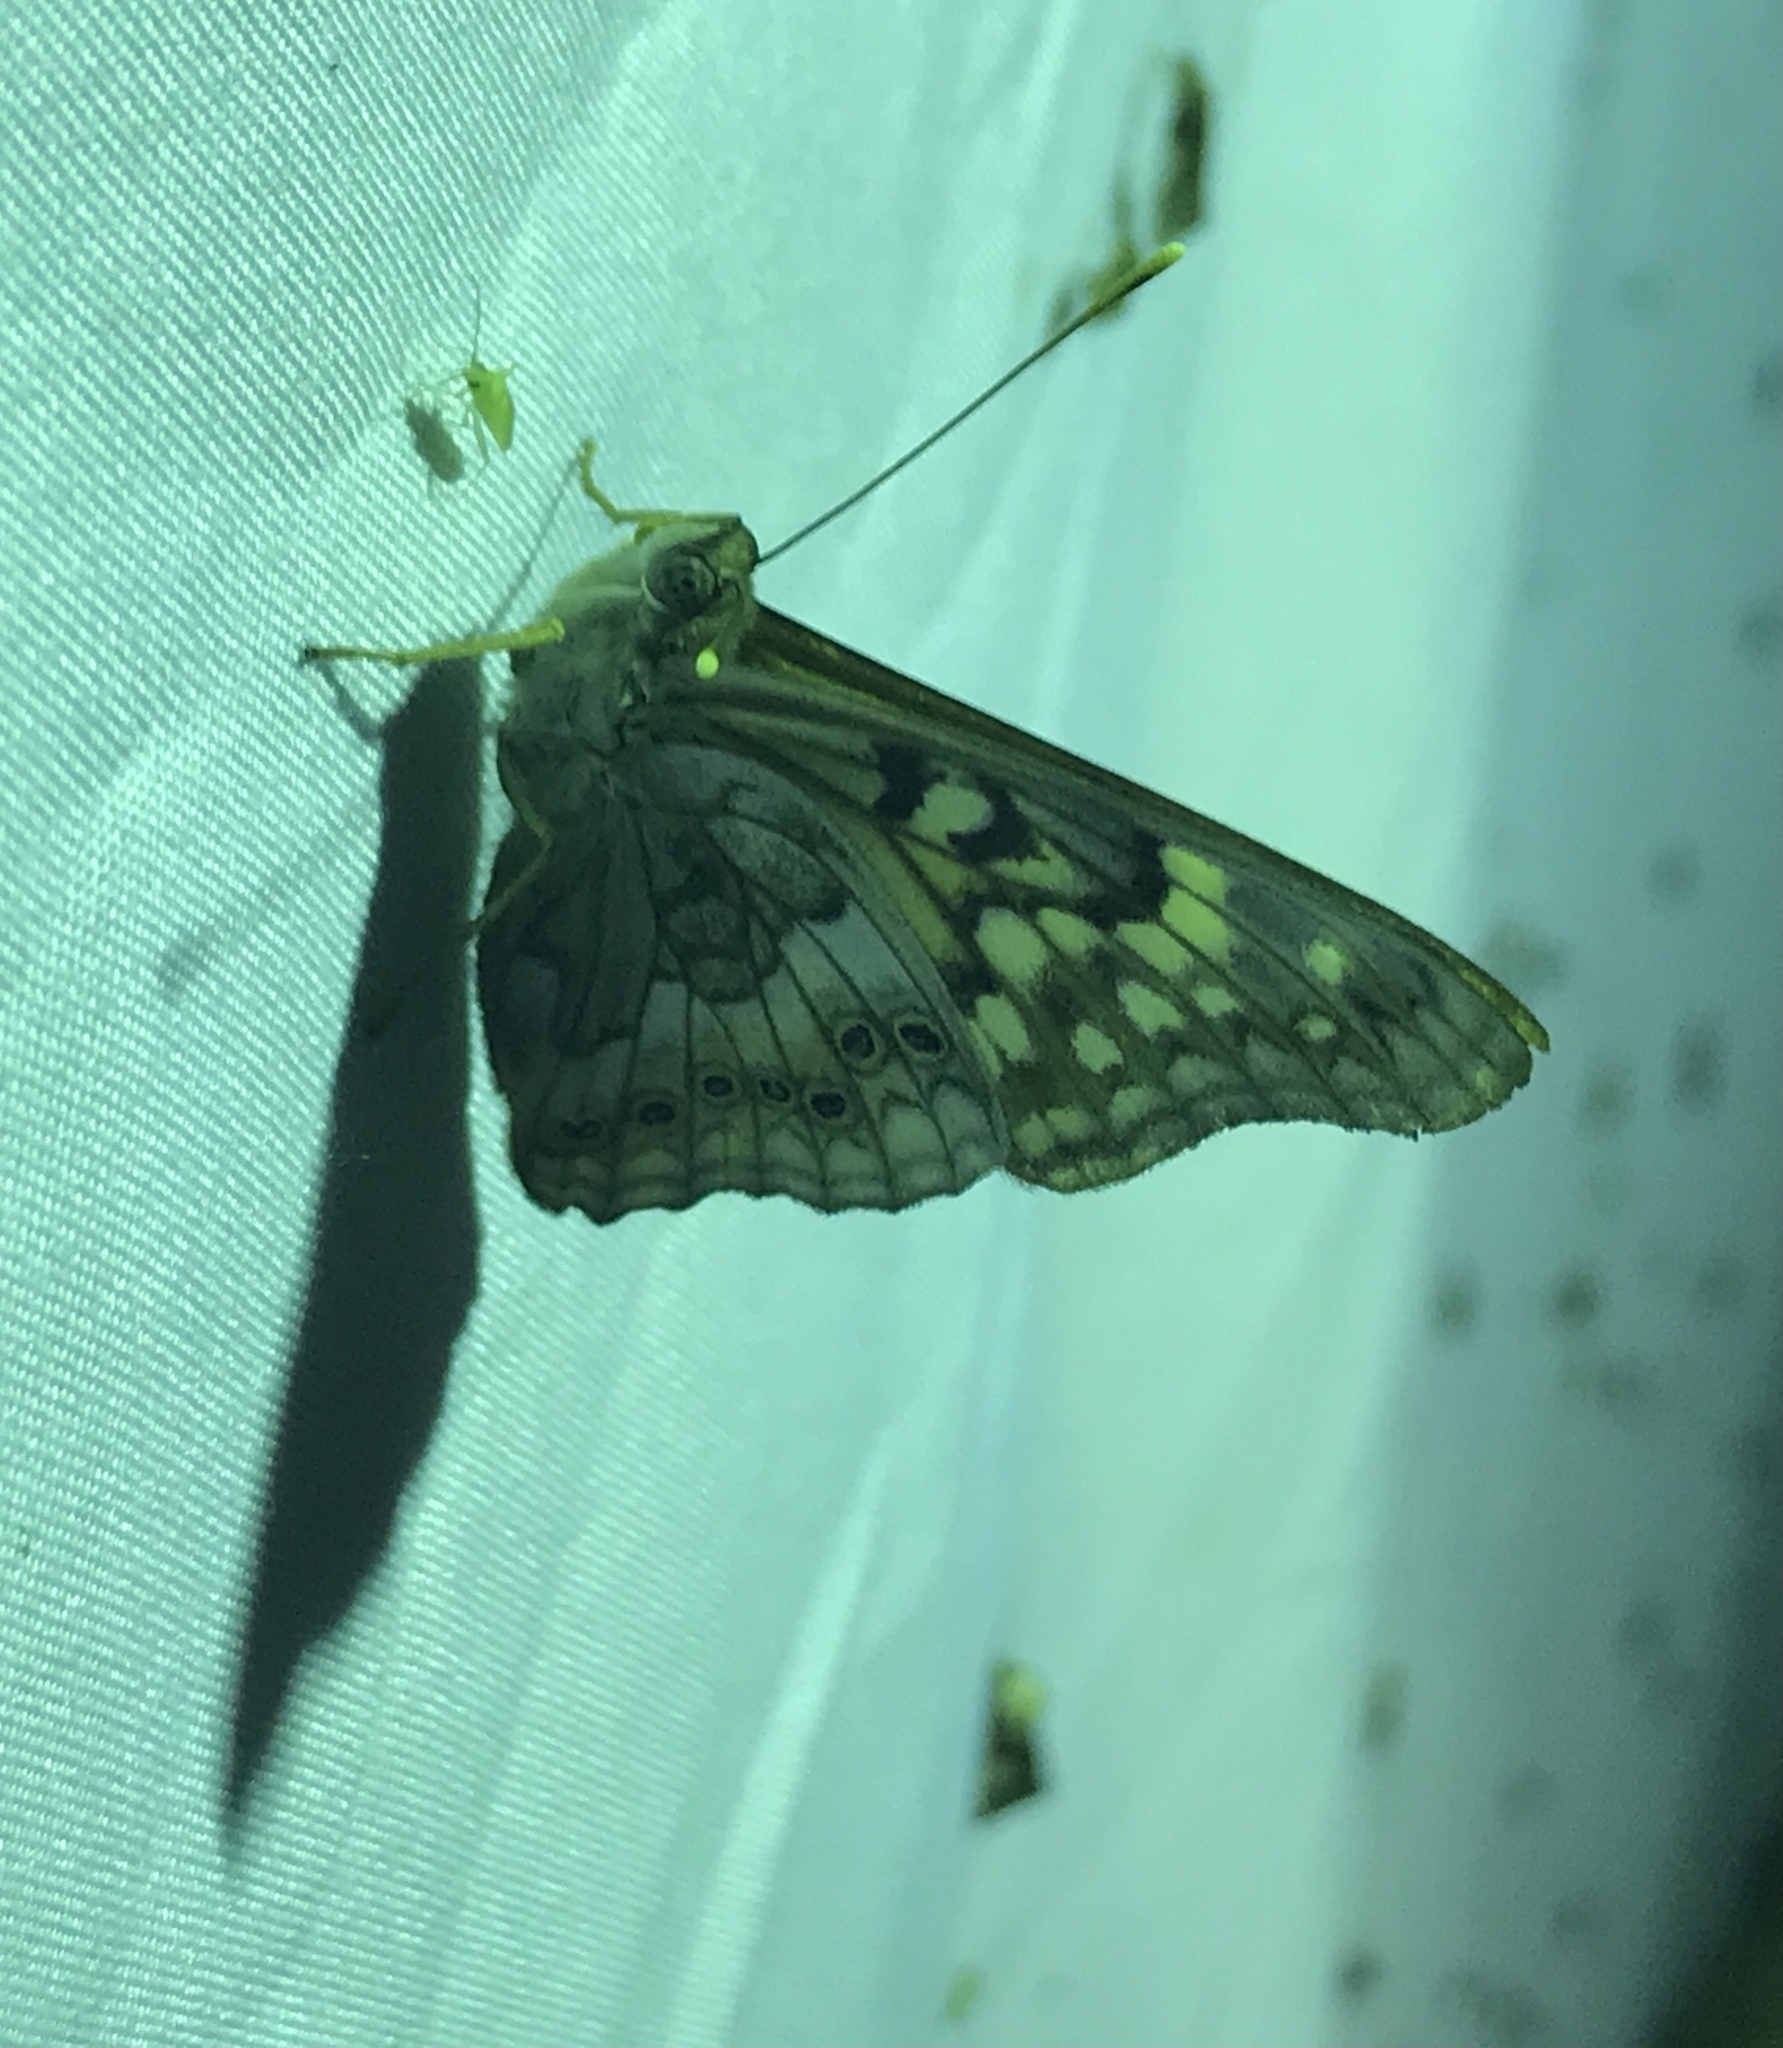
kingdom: Animalia
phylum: Arthropoda
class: Insecta
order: Lepidoptera
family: Nymphalidae
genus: Asterocampa
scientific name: Asterocampa clyton
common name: Tawny emperor
